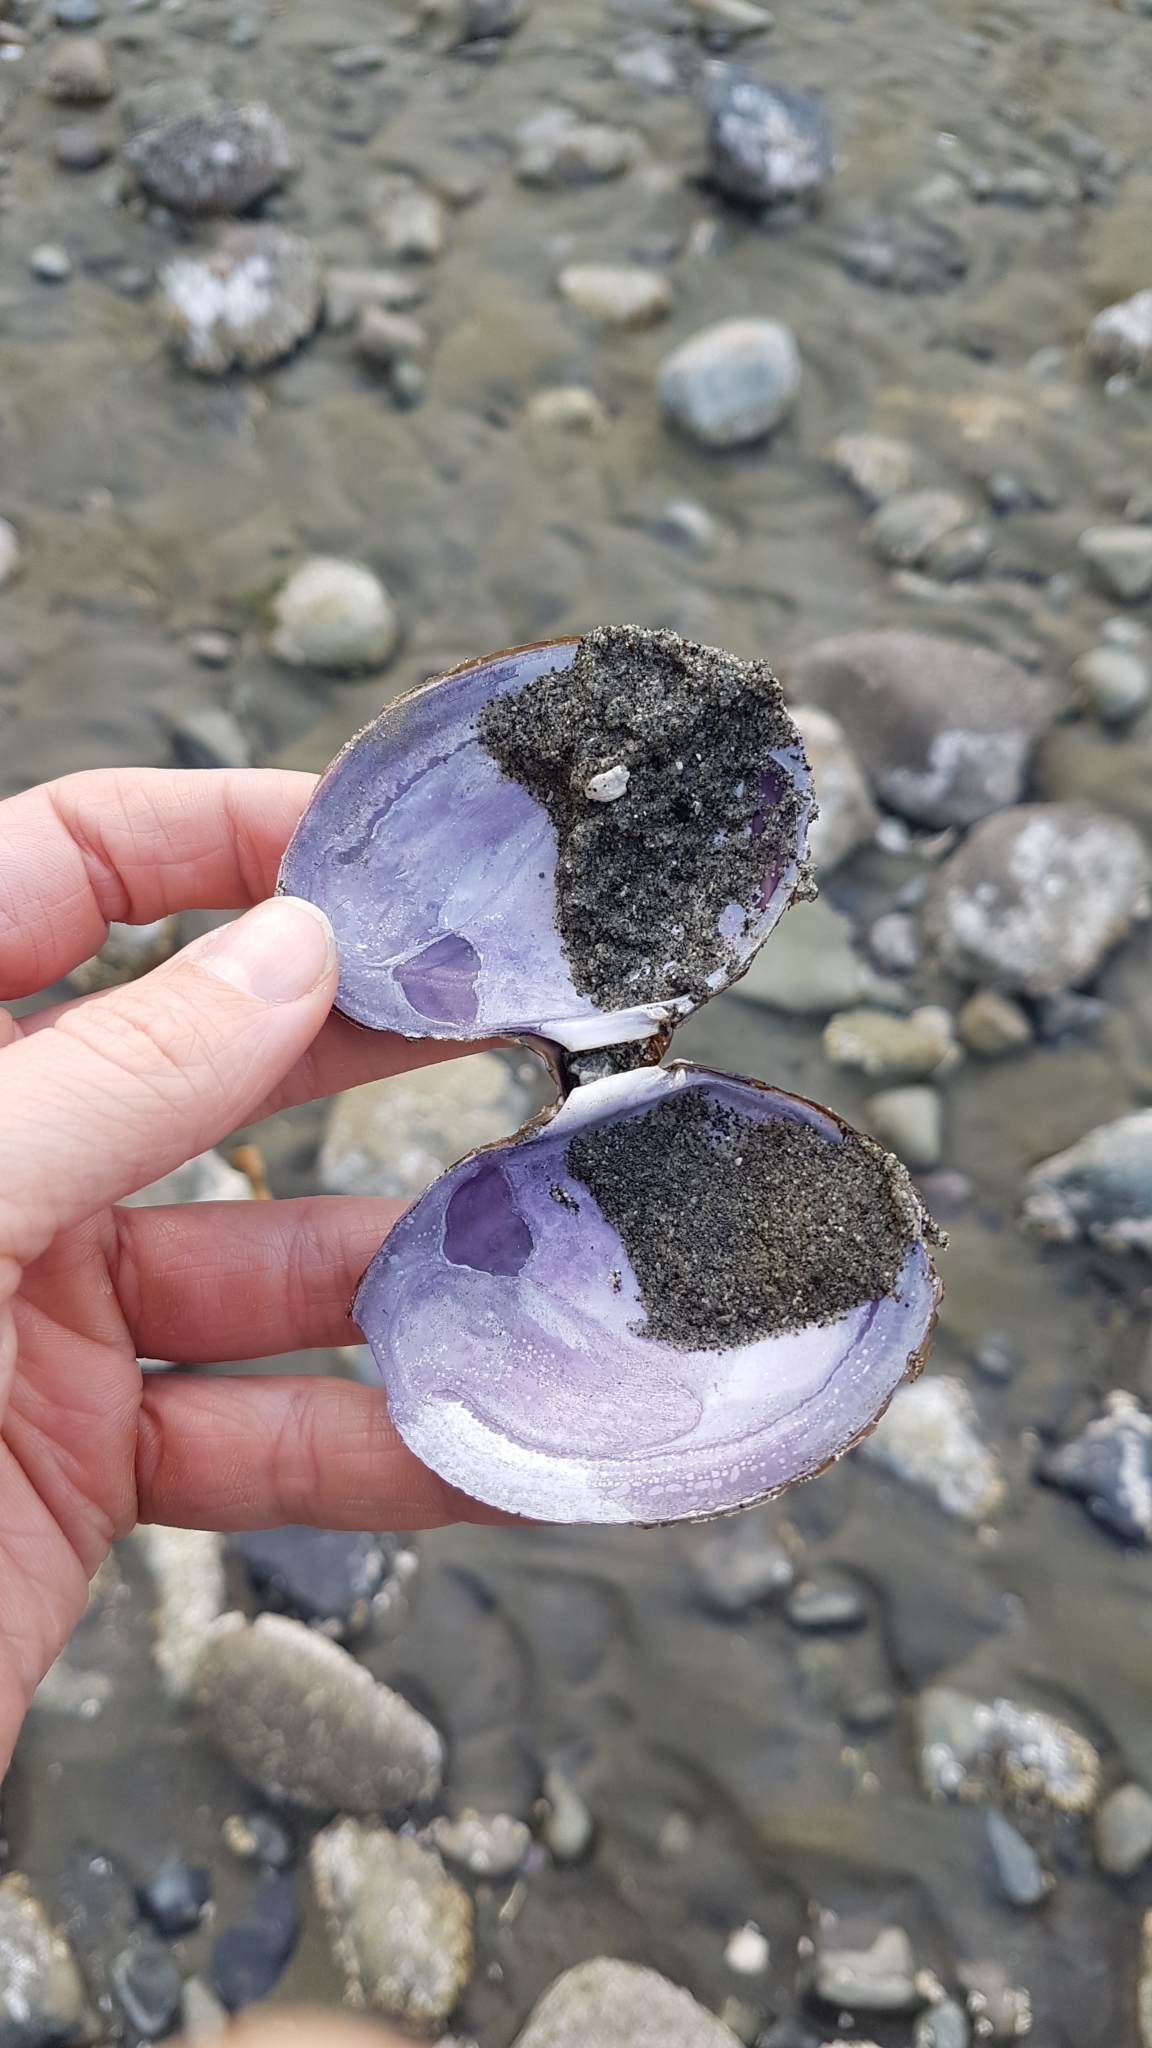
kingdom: Animalia
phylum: Mollusca
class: Bivalvia
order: Cardiida
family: Psammobiidae
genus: Nuttallia
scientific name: Nuttallia obscurata
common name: Purple mahogany-clam
